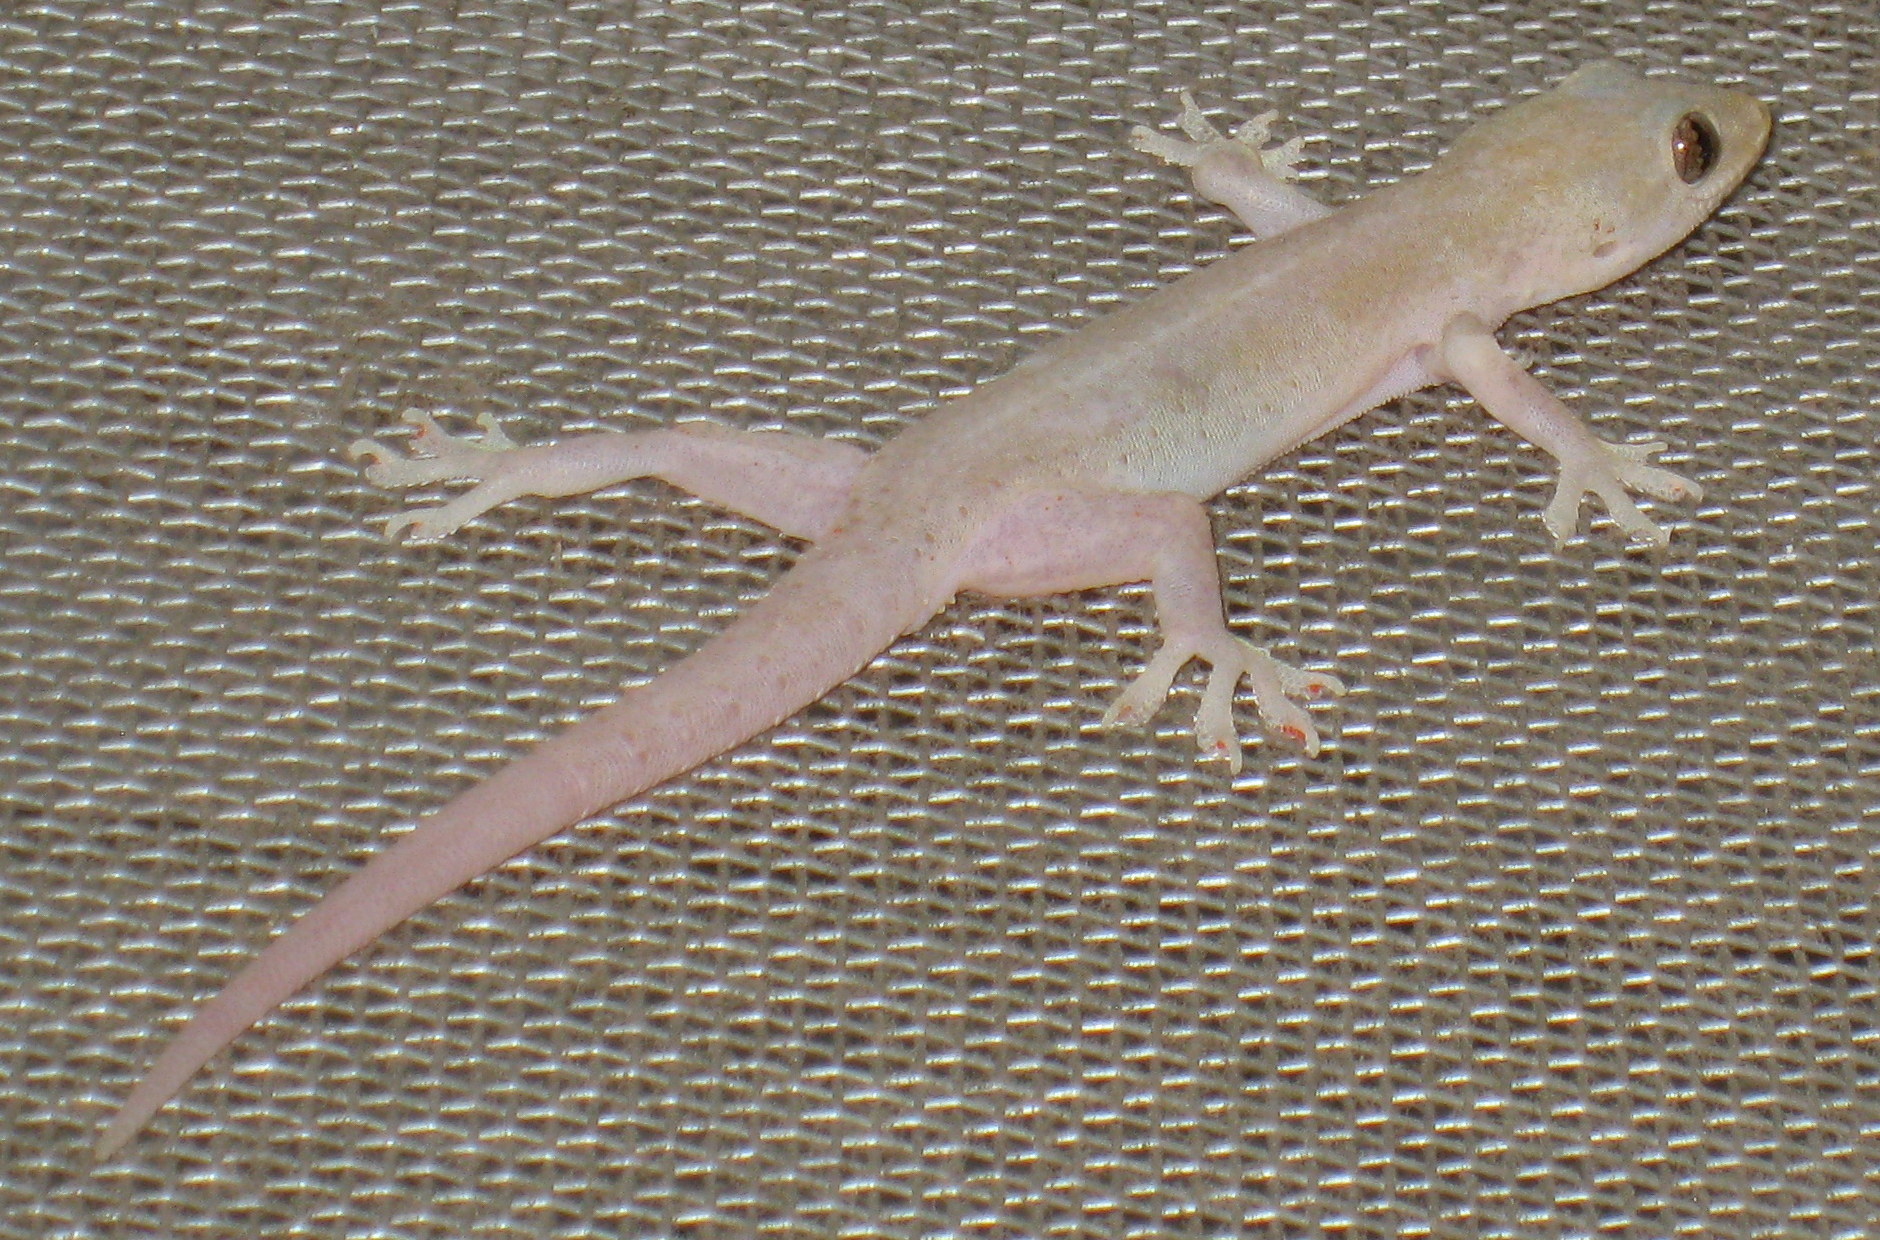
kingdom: Animalia
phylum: Chordata
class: Squamata
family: Gekkonidae
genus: Hemidactylus
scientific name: Hemidactylus frenatus
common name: Common house gecko
